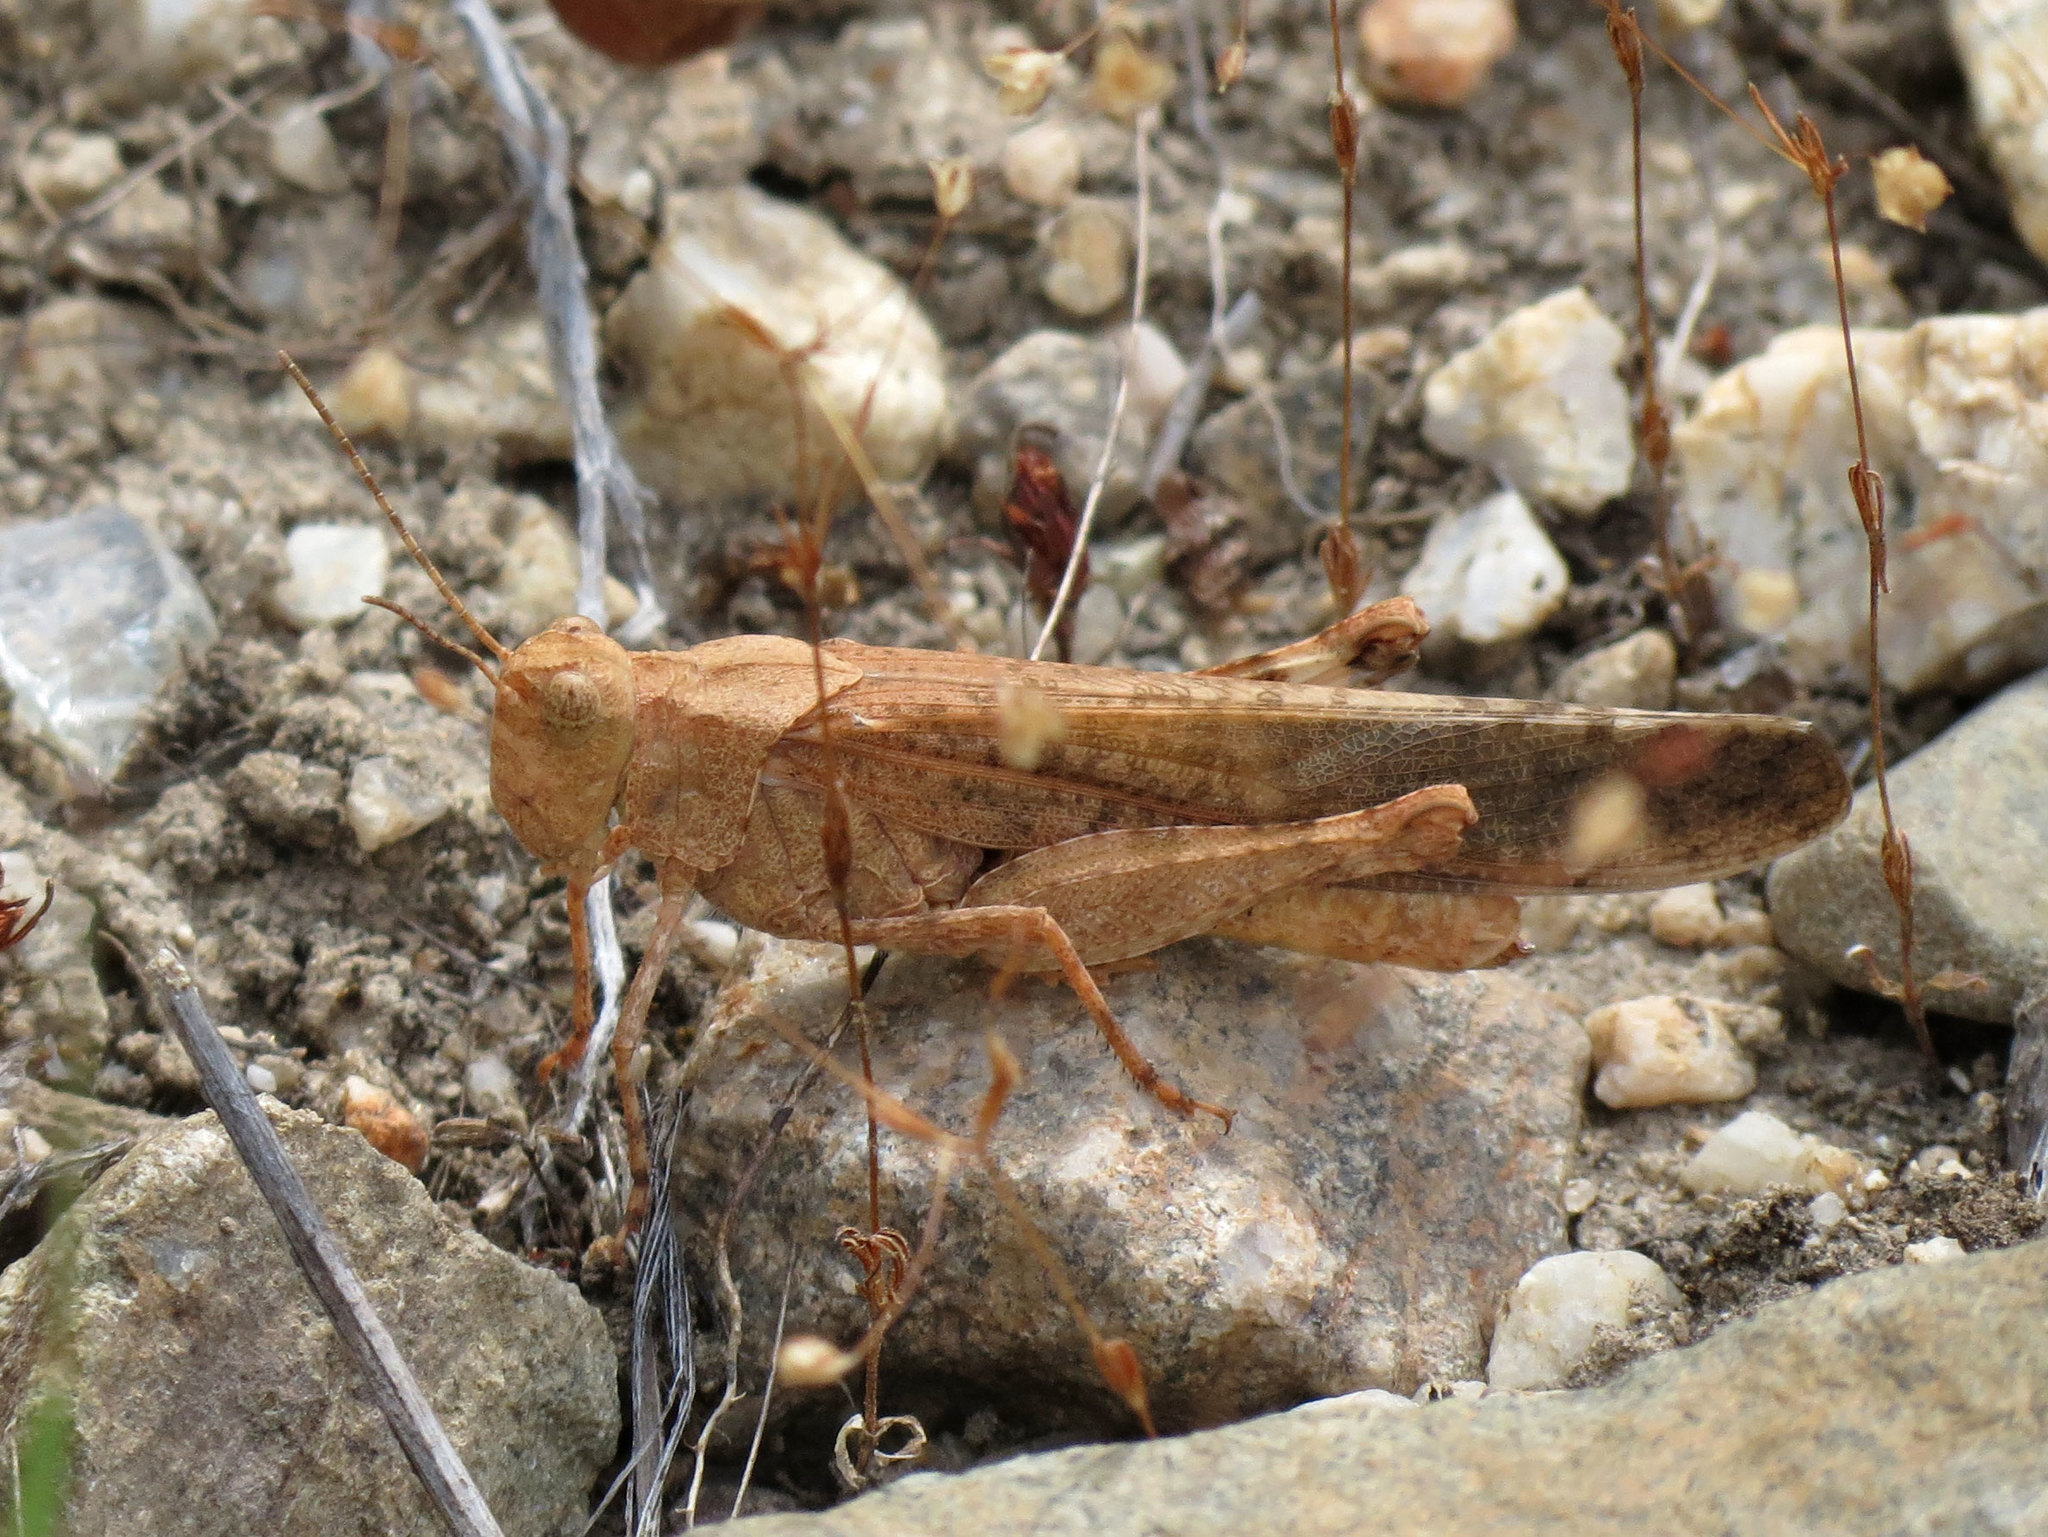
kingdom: Animalia
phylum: Arthropoda
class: Insecta
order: Orthoptera
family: Acrididae
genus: Trimerotropis
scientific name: Trimerotropis verruculata
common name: Crackling forest grasshopper
